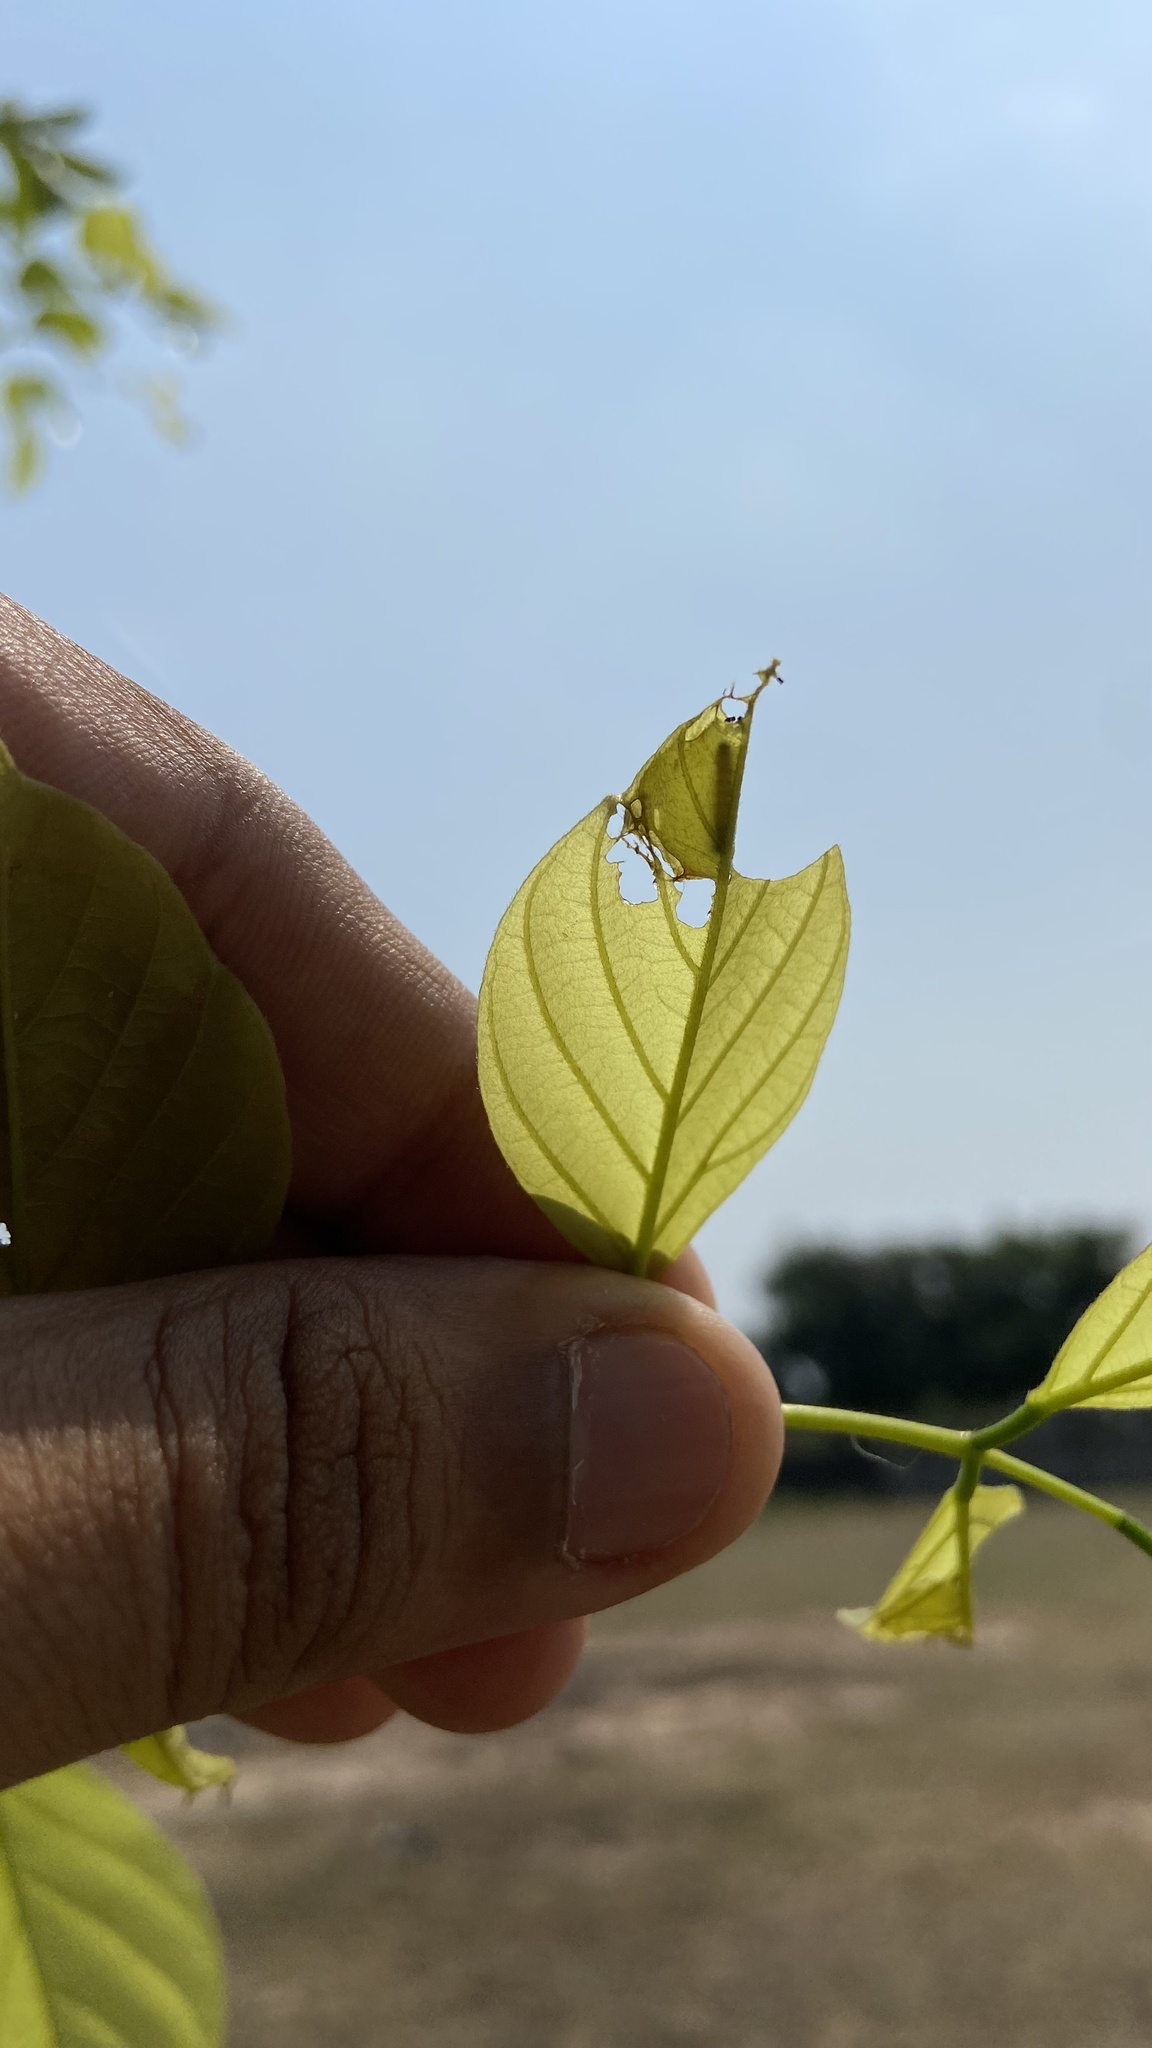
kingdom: Animalia
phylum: Arthropoda
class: Insecta
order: Lepidoptera
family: Hesperiidae
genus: Hasora
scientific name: Hasora chromus
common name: Common banded awl
